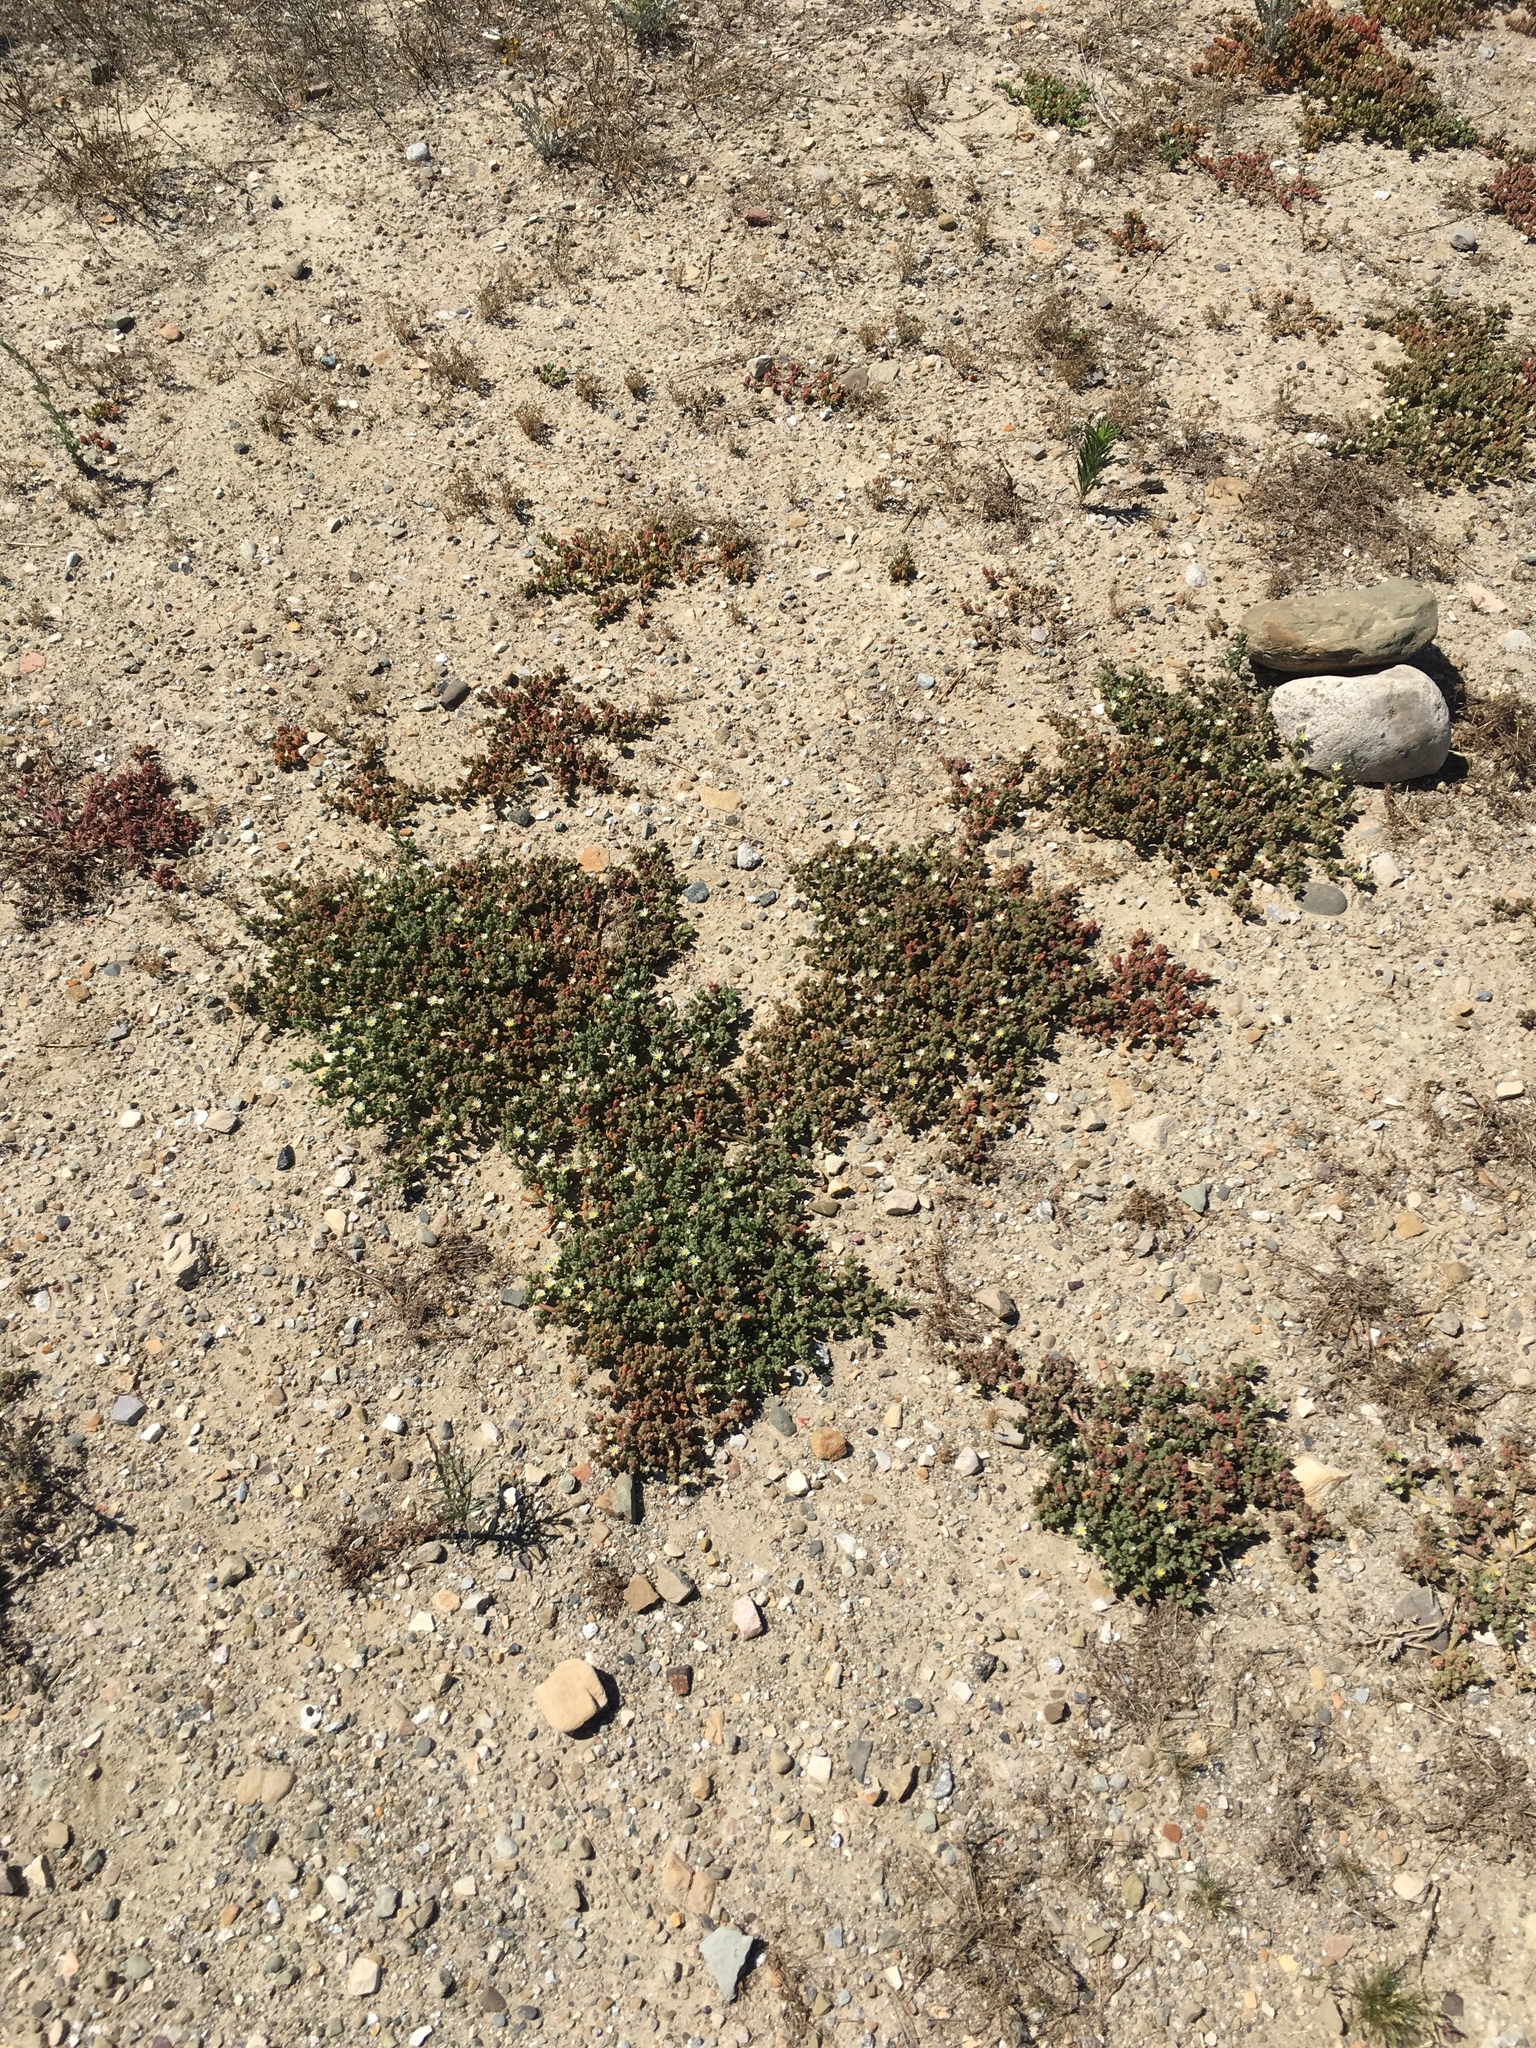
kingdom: Plantae
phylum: Tracheophyta
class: Magnoliopsida
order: Caryophyllales
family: Aizoaceae
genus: Mesembryanthemum
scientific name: Mesembryanthemum nodiflorum
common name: Slenderleaf iceplant
